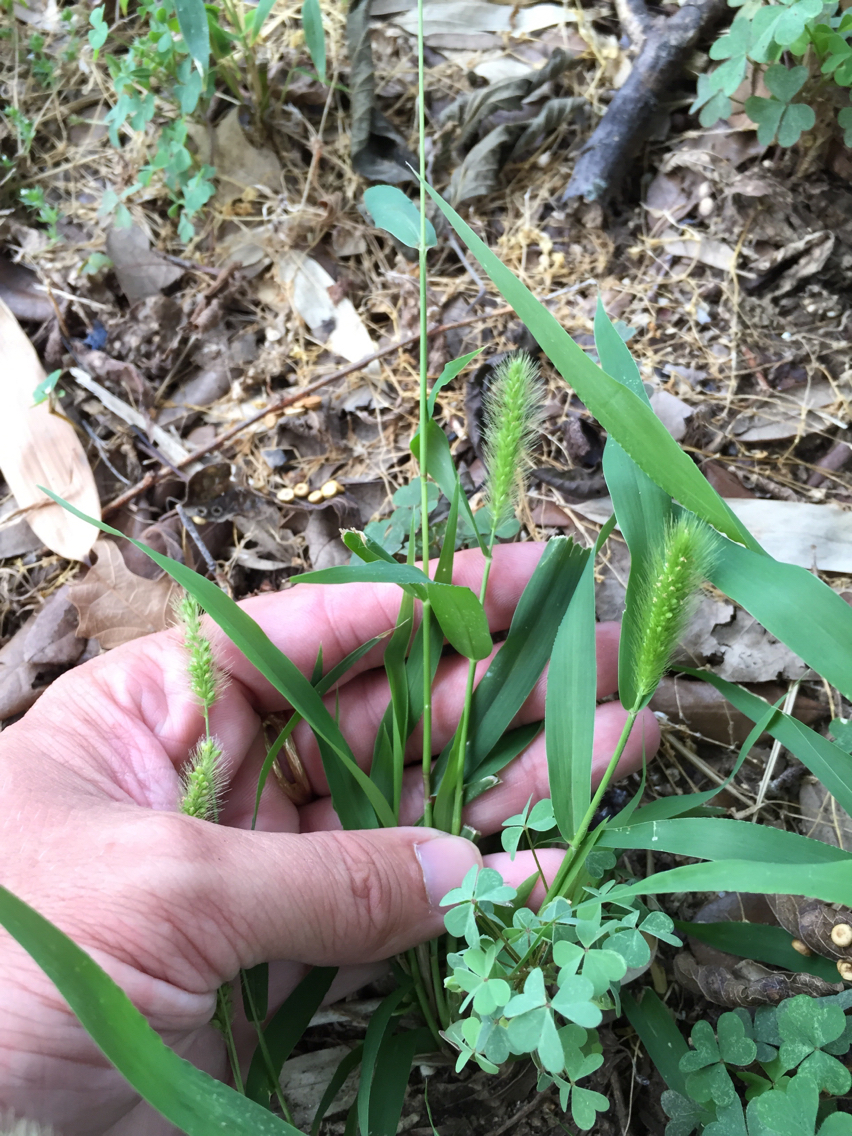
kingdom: Plantae
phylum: Tracheophyta
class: Liliopsida
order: Poales
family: Poaceae
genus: Setaria
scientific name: Setaria viridis
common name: Green bristlegrass
